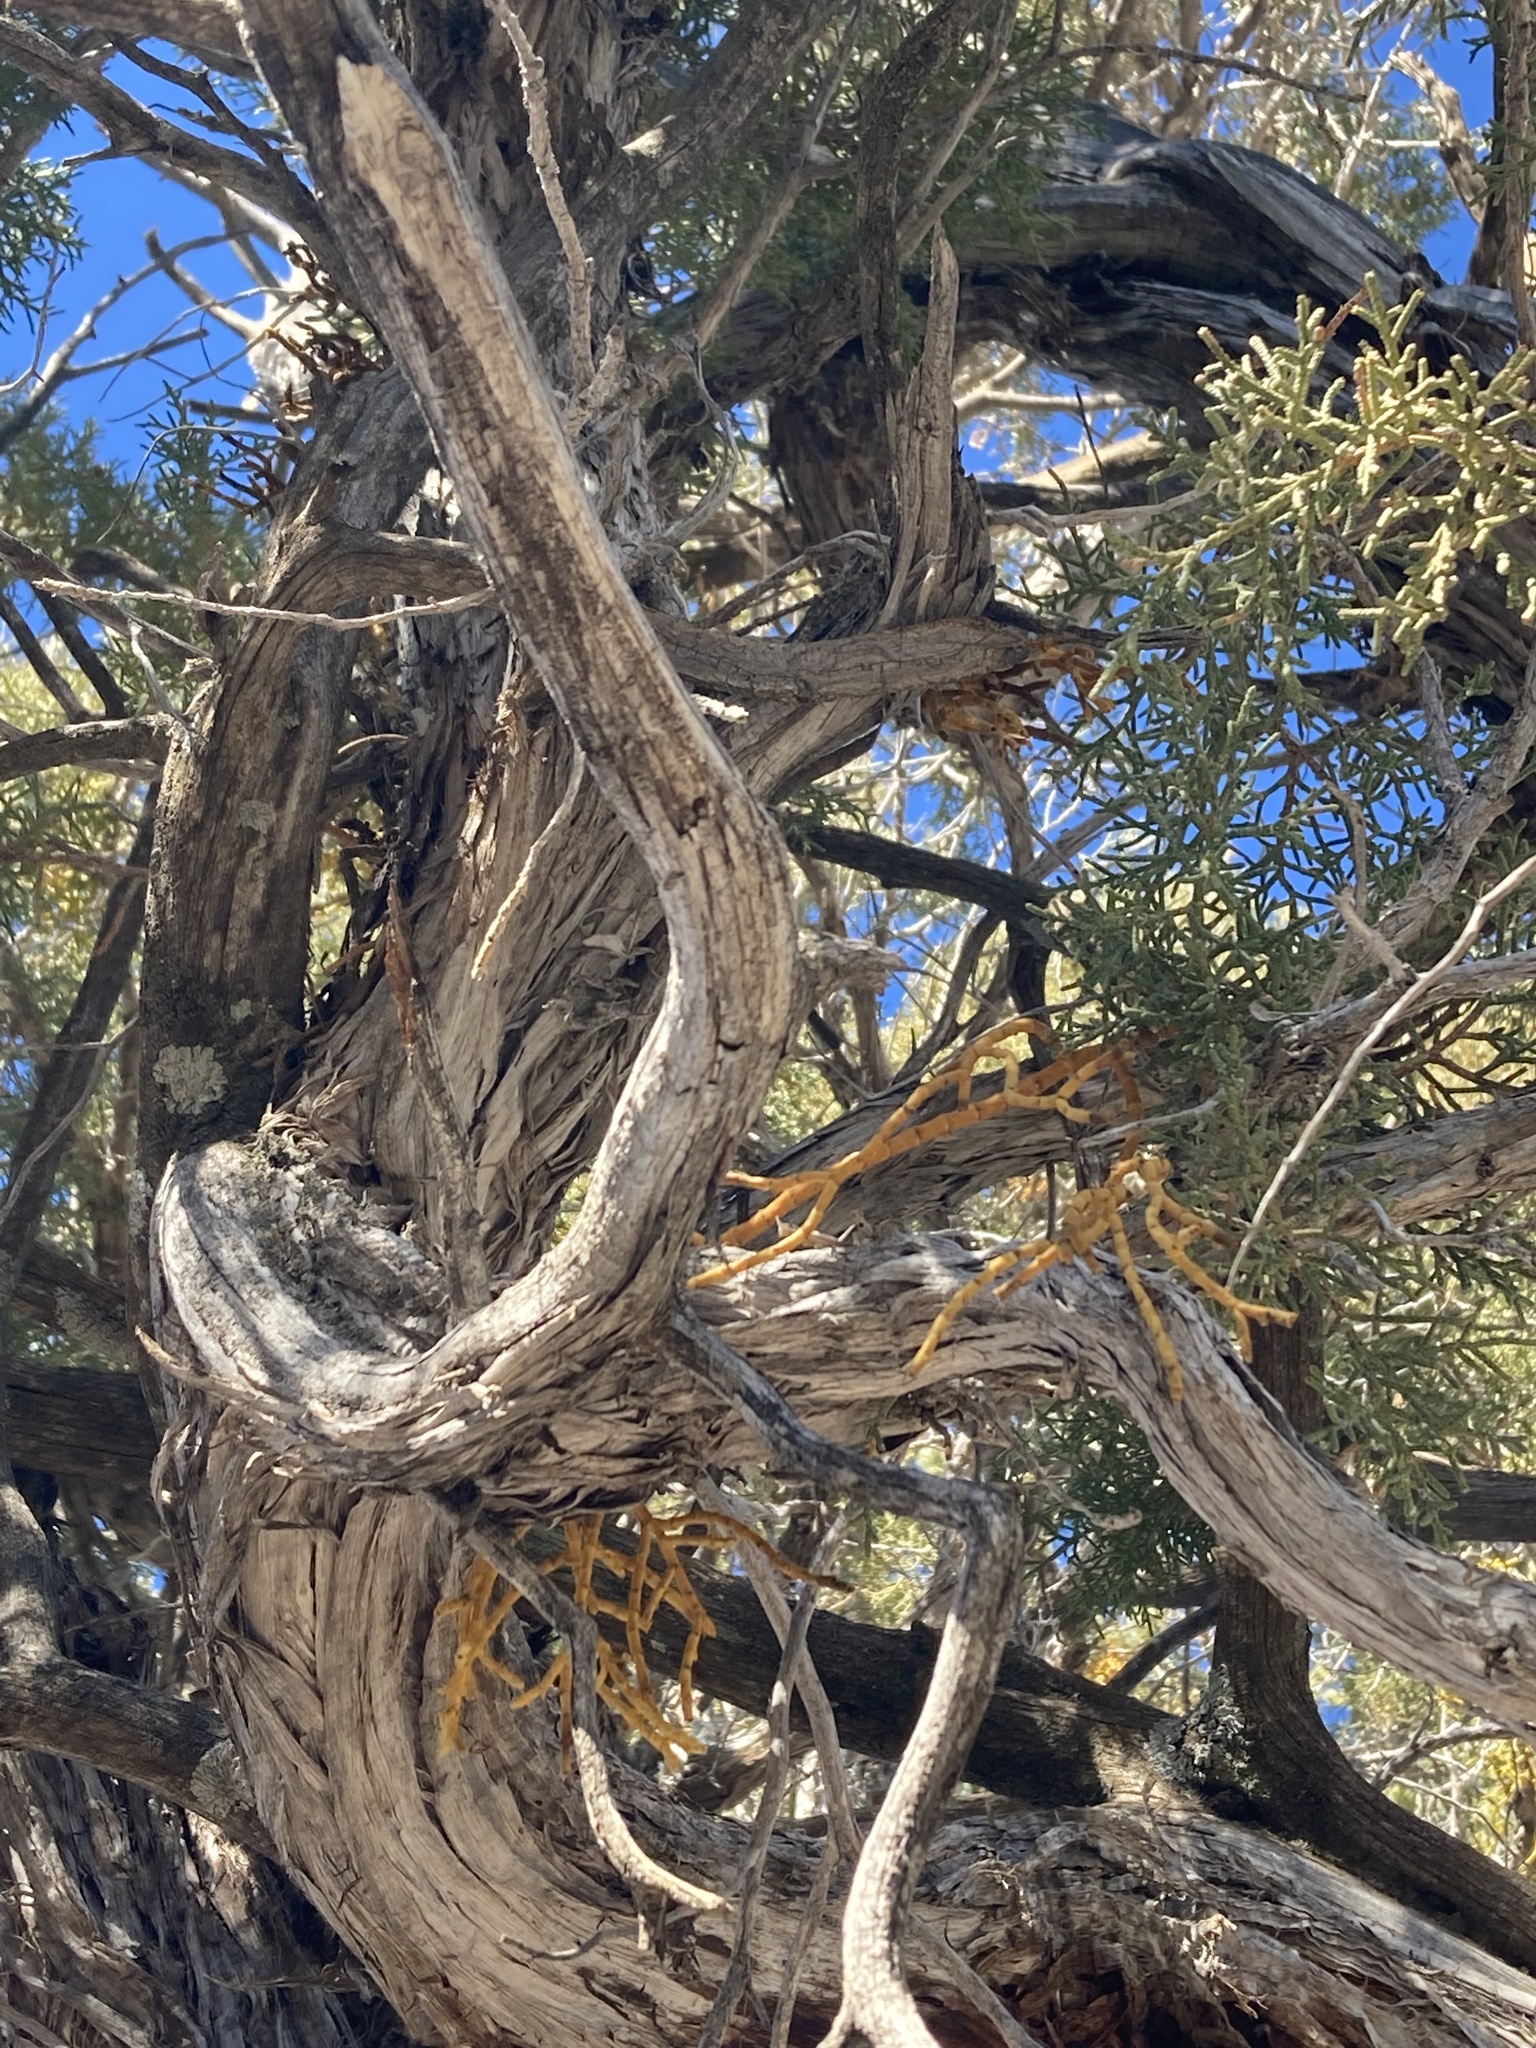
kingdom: Plantae
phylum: Tracheophyta
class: Magnoliopsida
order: Santalales
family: Viscaceae
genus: Phoradendron
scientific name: Phoradendron juniperinum
